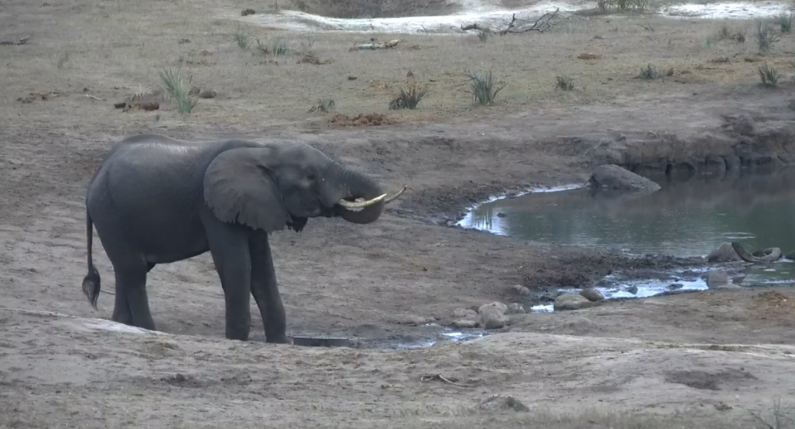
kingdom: Animalia
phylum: Chordata
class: Mammalia
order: Proboscidea
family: Elephantidae
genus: Loxodonta
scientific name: Loxodonta africana
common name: African elephant
